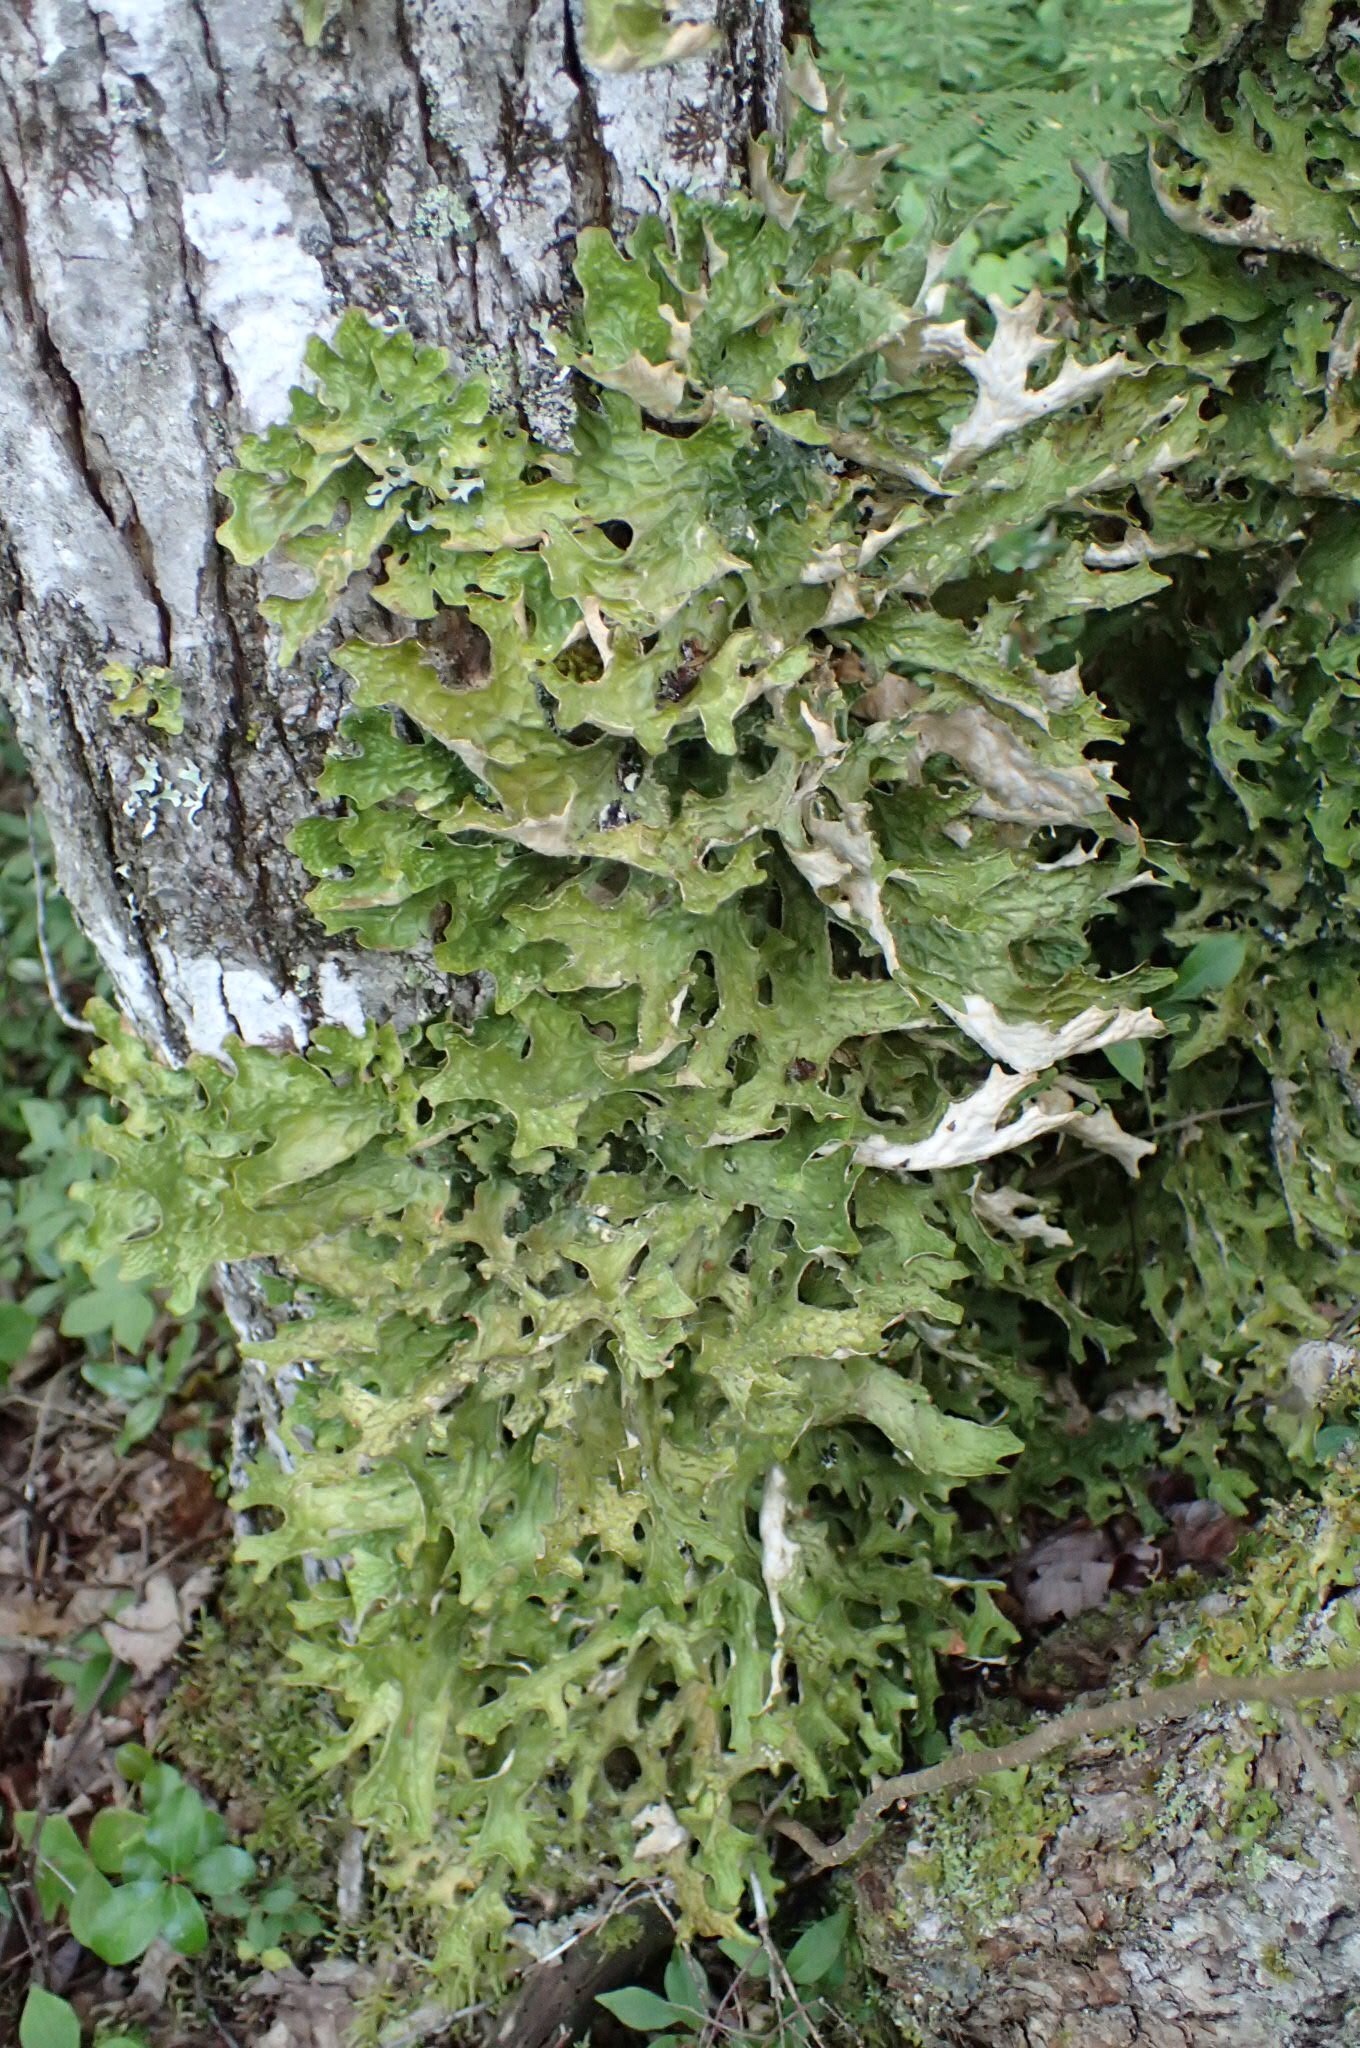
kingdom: Fungi
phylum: Ascomycota
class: Lecanoromycetes
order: Peltigerales
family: Lobariaceae
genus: Lobaria
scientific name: Lobaria pulmonaria
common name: Lungwort
